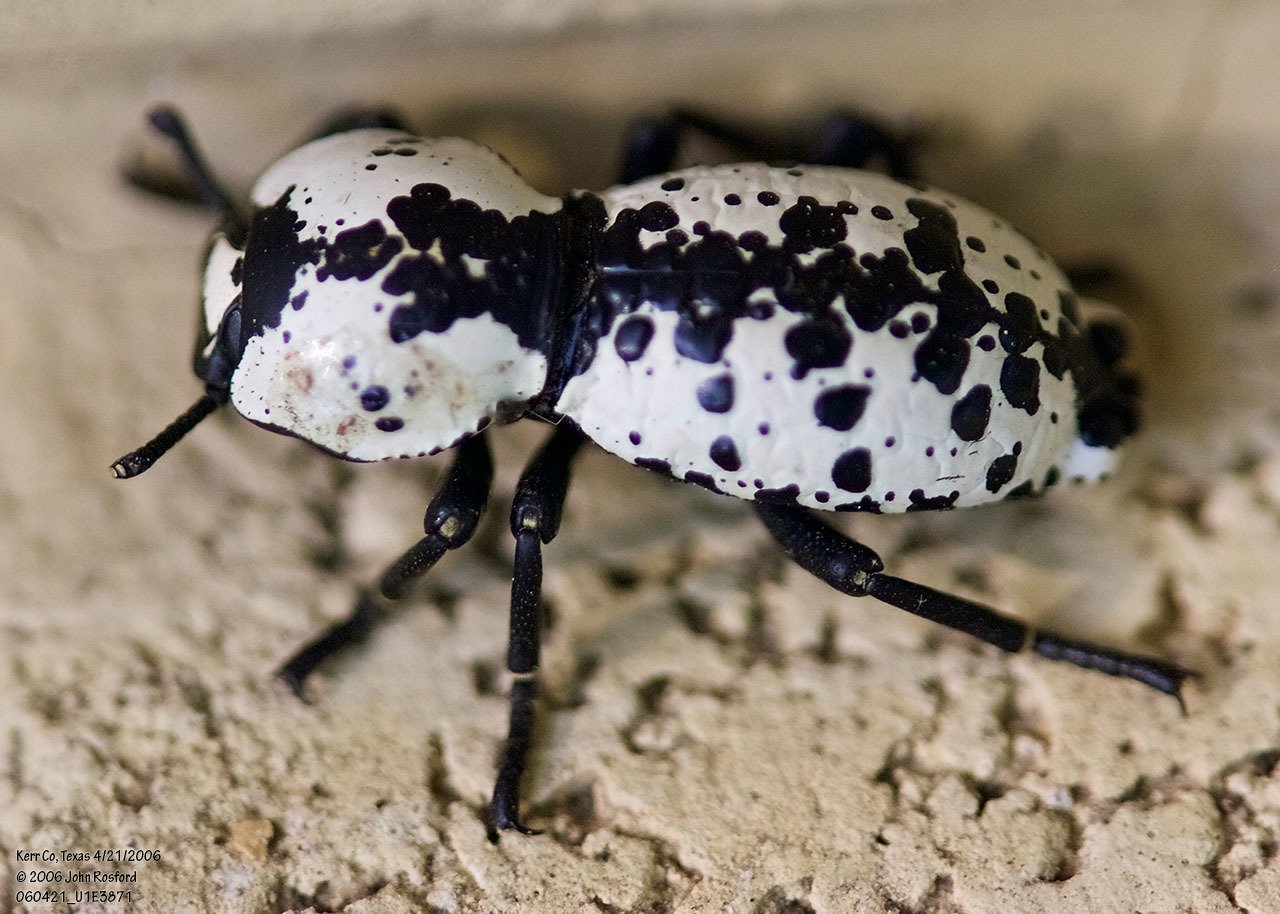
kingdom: Animalia
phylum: Arthropoda
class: Insecta
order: Coleoptera
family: Zopheridae
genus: Zopherus
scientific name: Zopherus nodulosus
